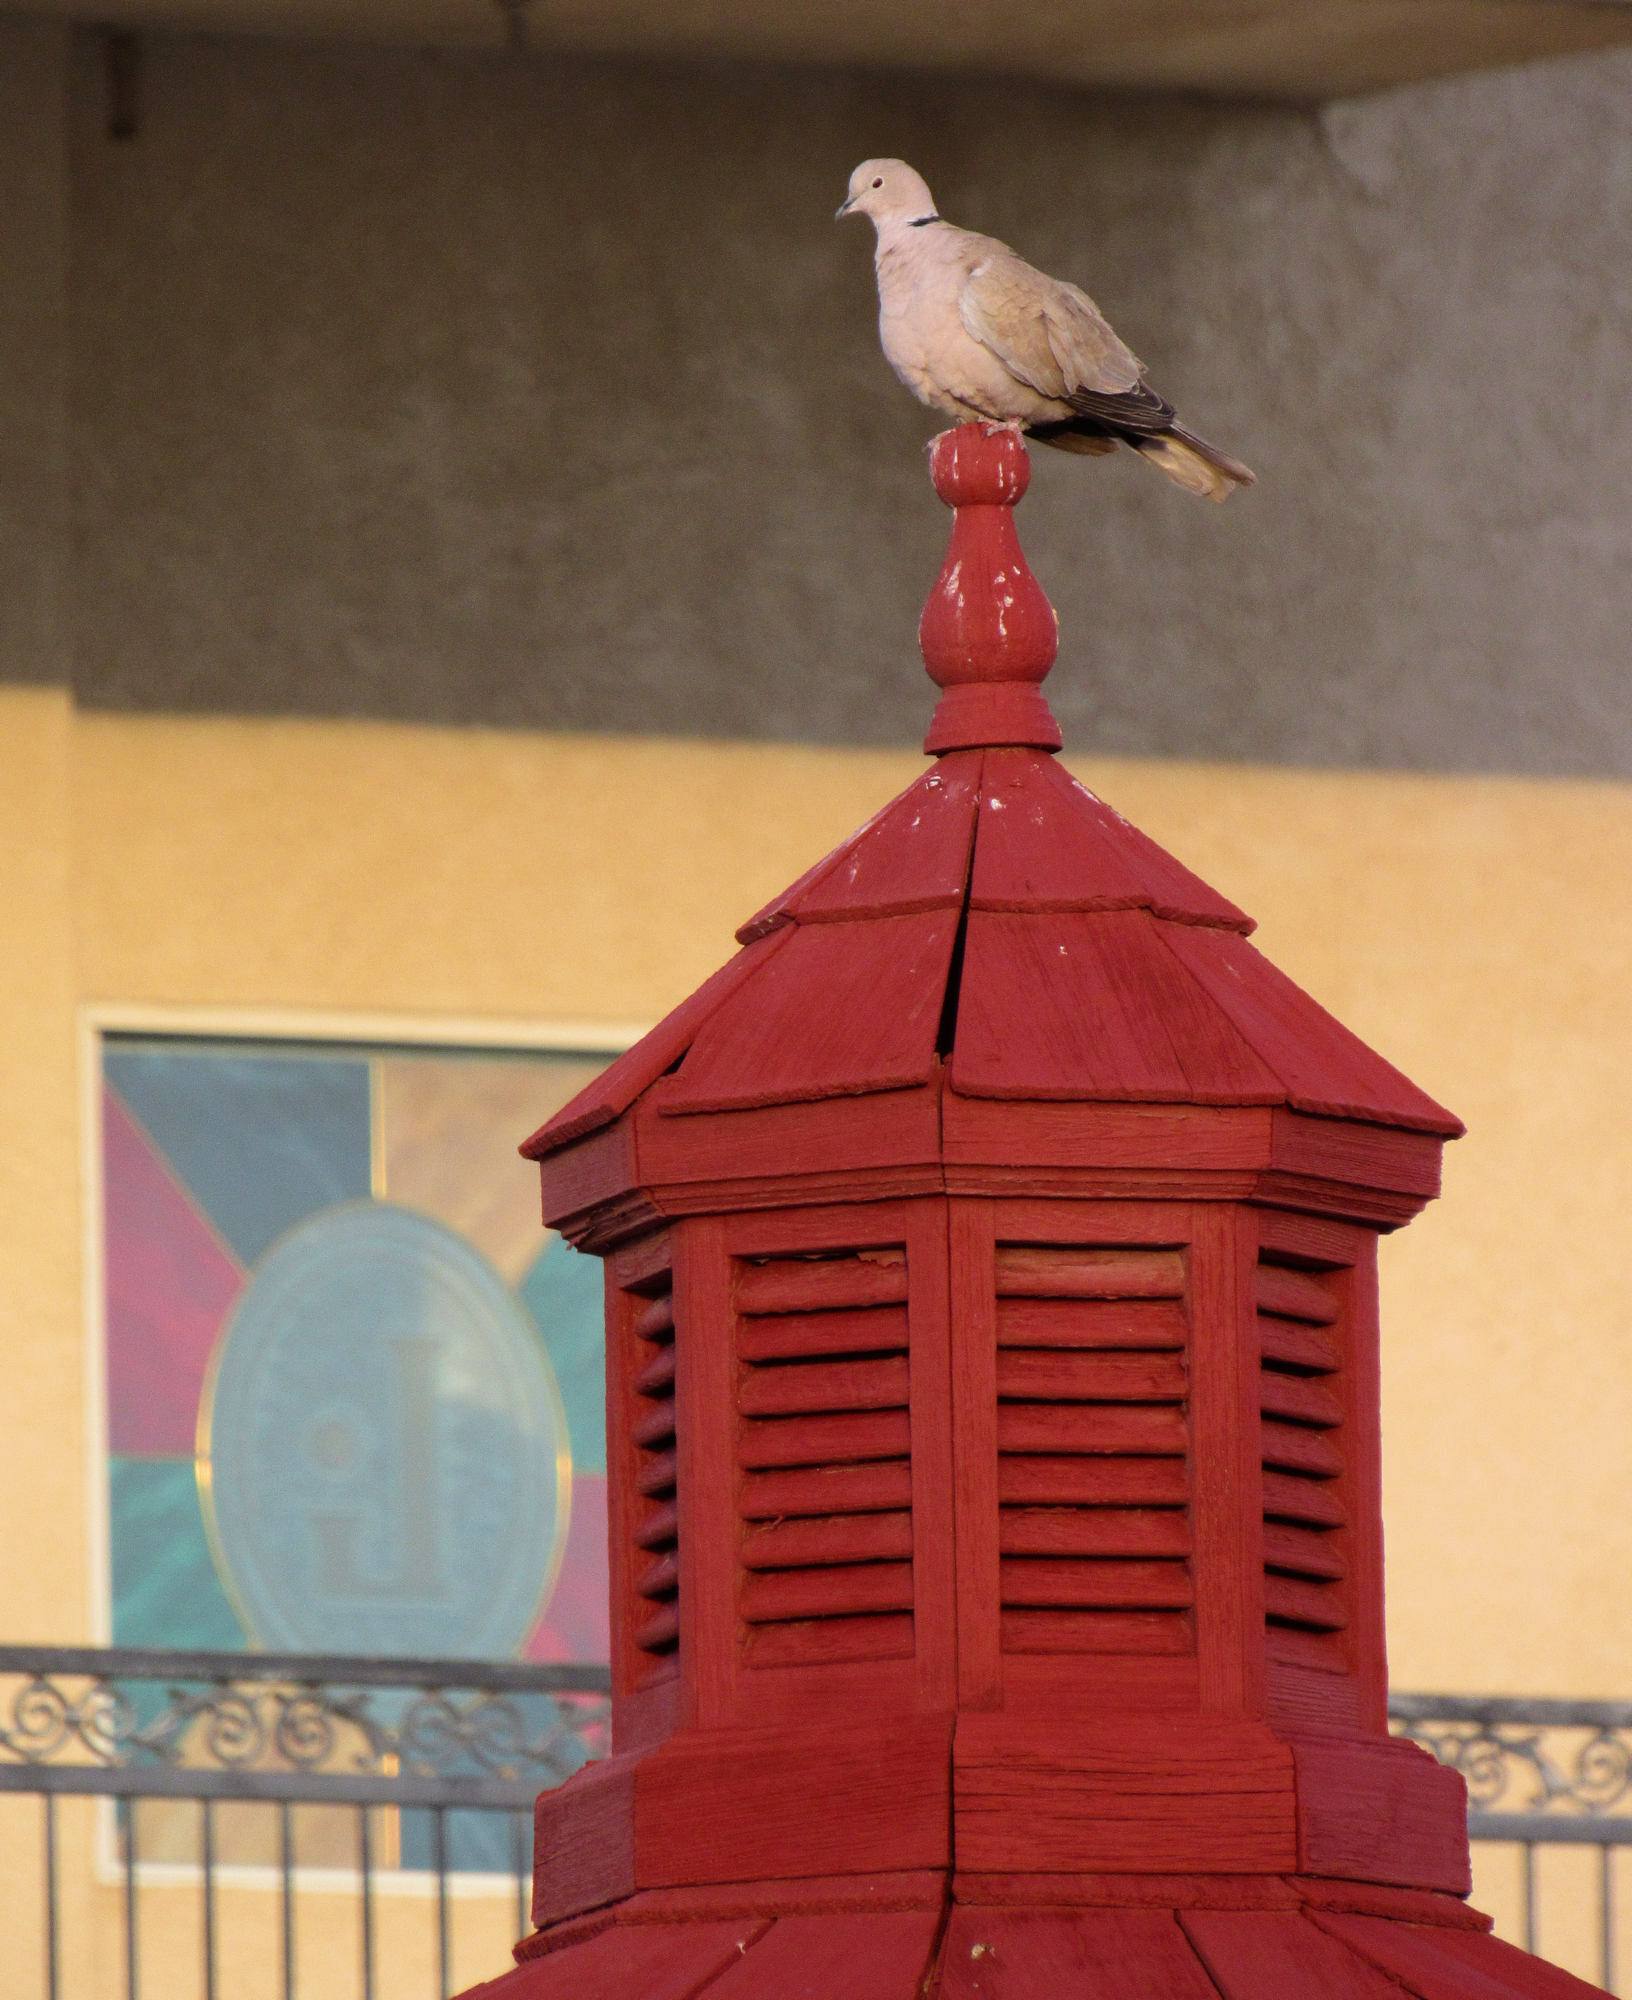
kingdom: Animalia
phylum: Chordata
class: Aves
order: Columbiformes
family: Columbidae
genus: Streptopelia
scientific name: Streptopelia decaocto
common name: Eurasian collared dove
